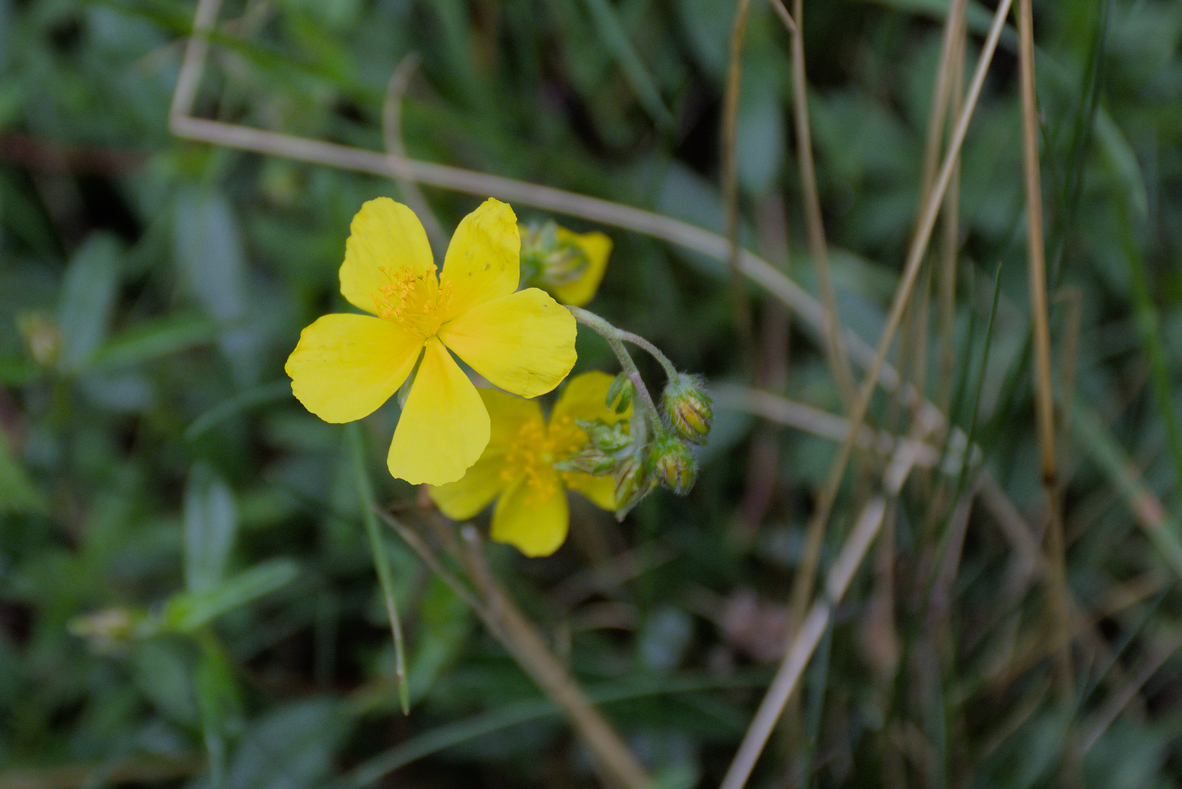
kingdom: Plantae
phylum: Tracheophyta
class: Magnoliopsida
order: Malvales
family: Cistaceae
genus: Helianthemum
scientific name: Helianthemum nummularium
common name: Common rock-rose
